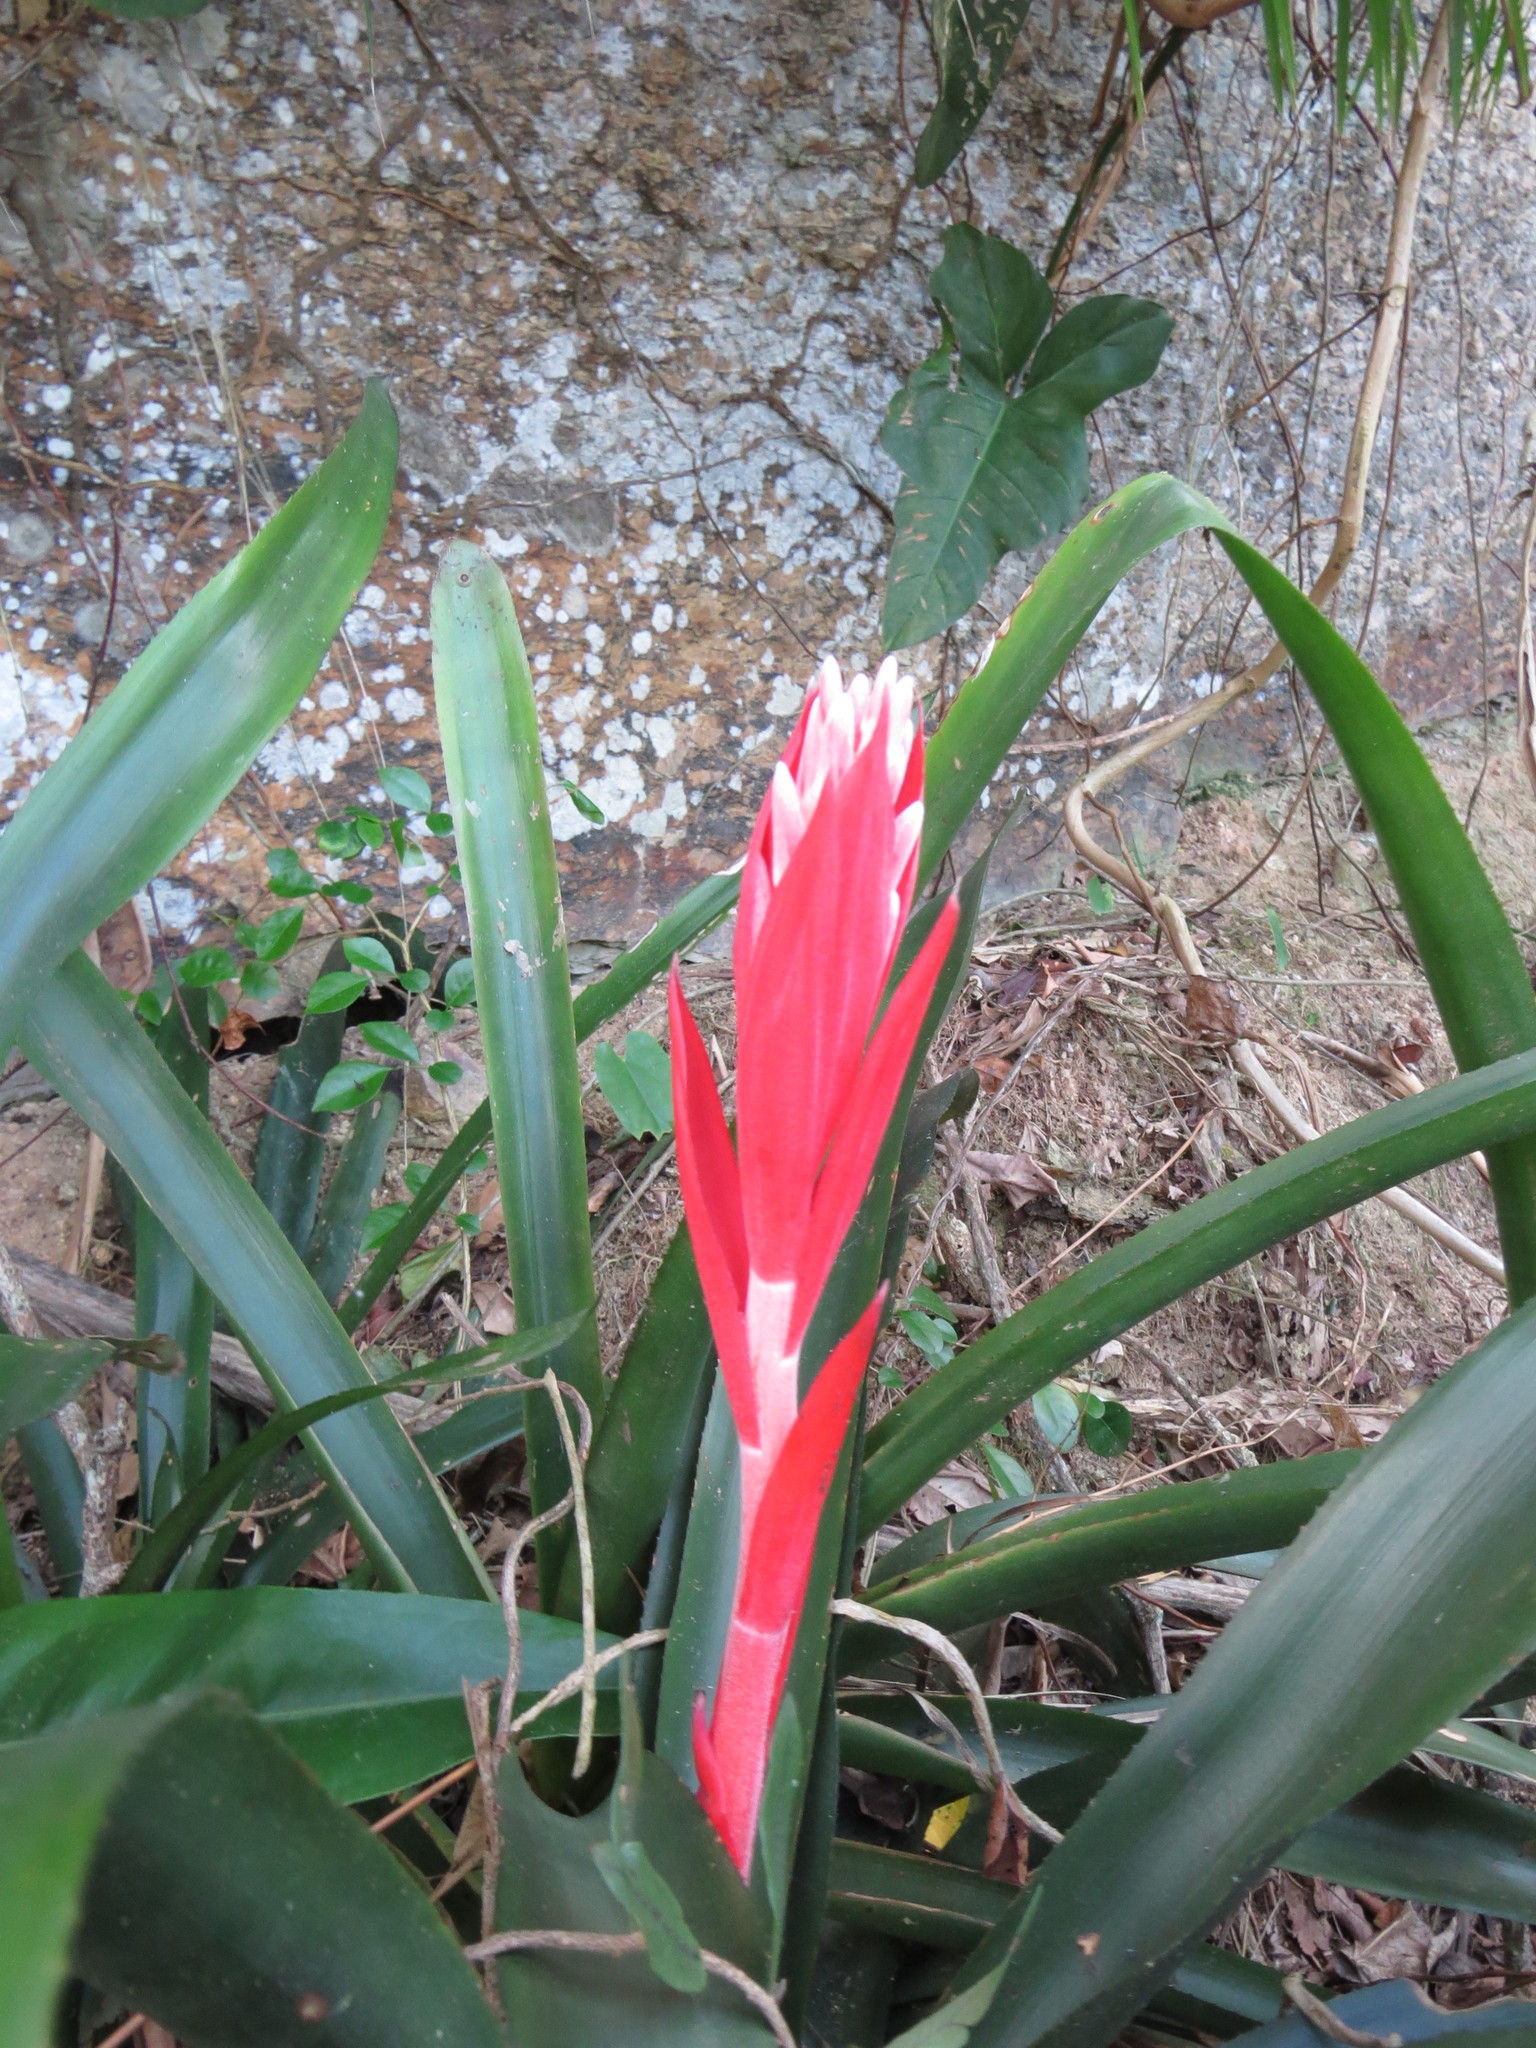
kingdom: Plantae
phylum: Tracheophyta
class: Liliopsida
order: Poales
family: Bromeliaceae
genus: Billbergia
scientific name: Billbergia pyramidalis
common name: Foolproofplant
